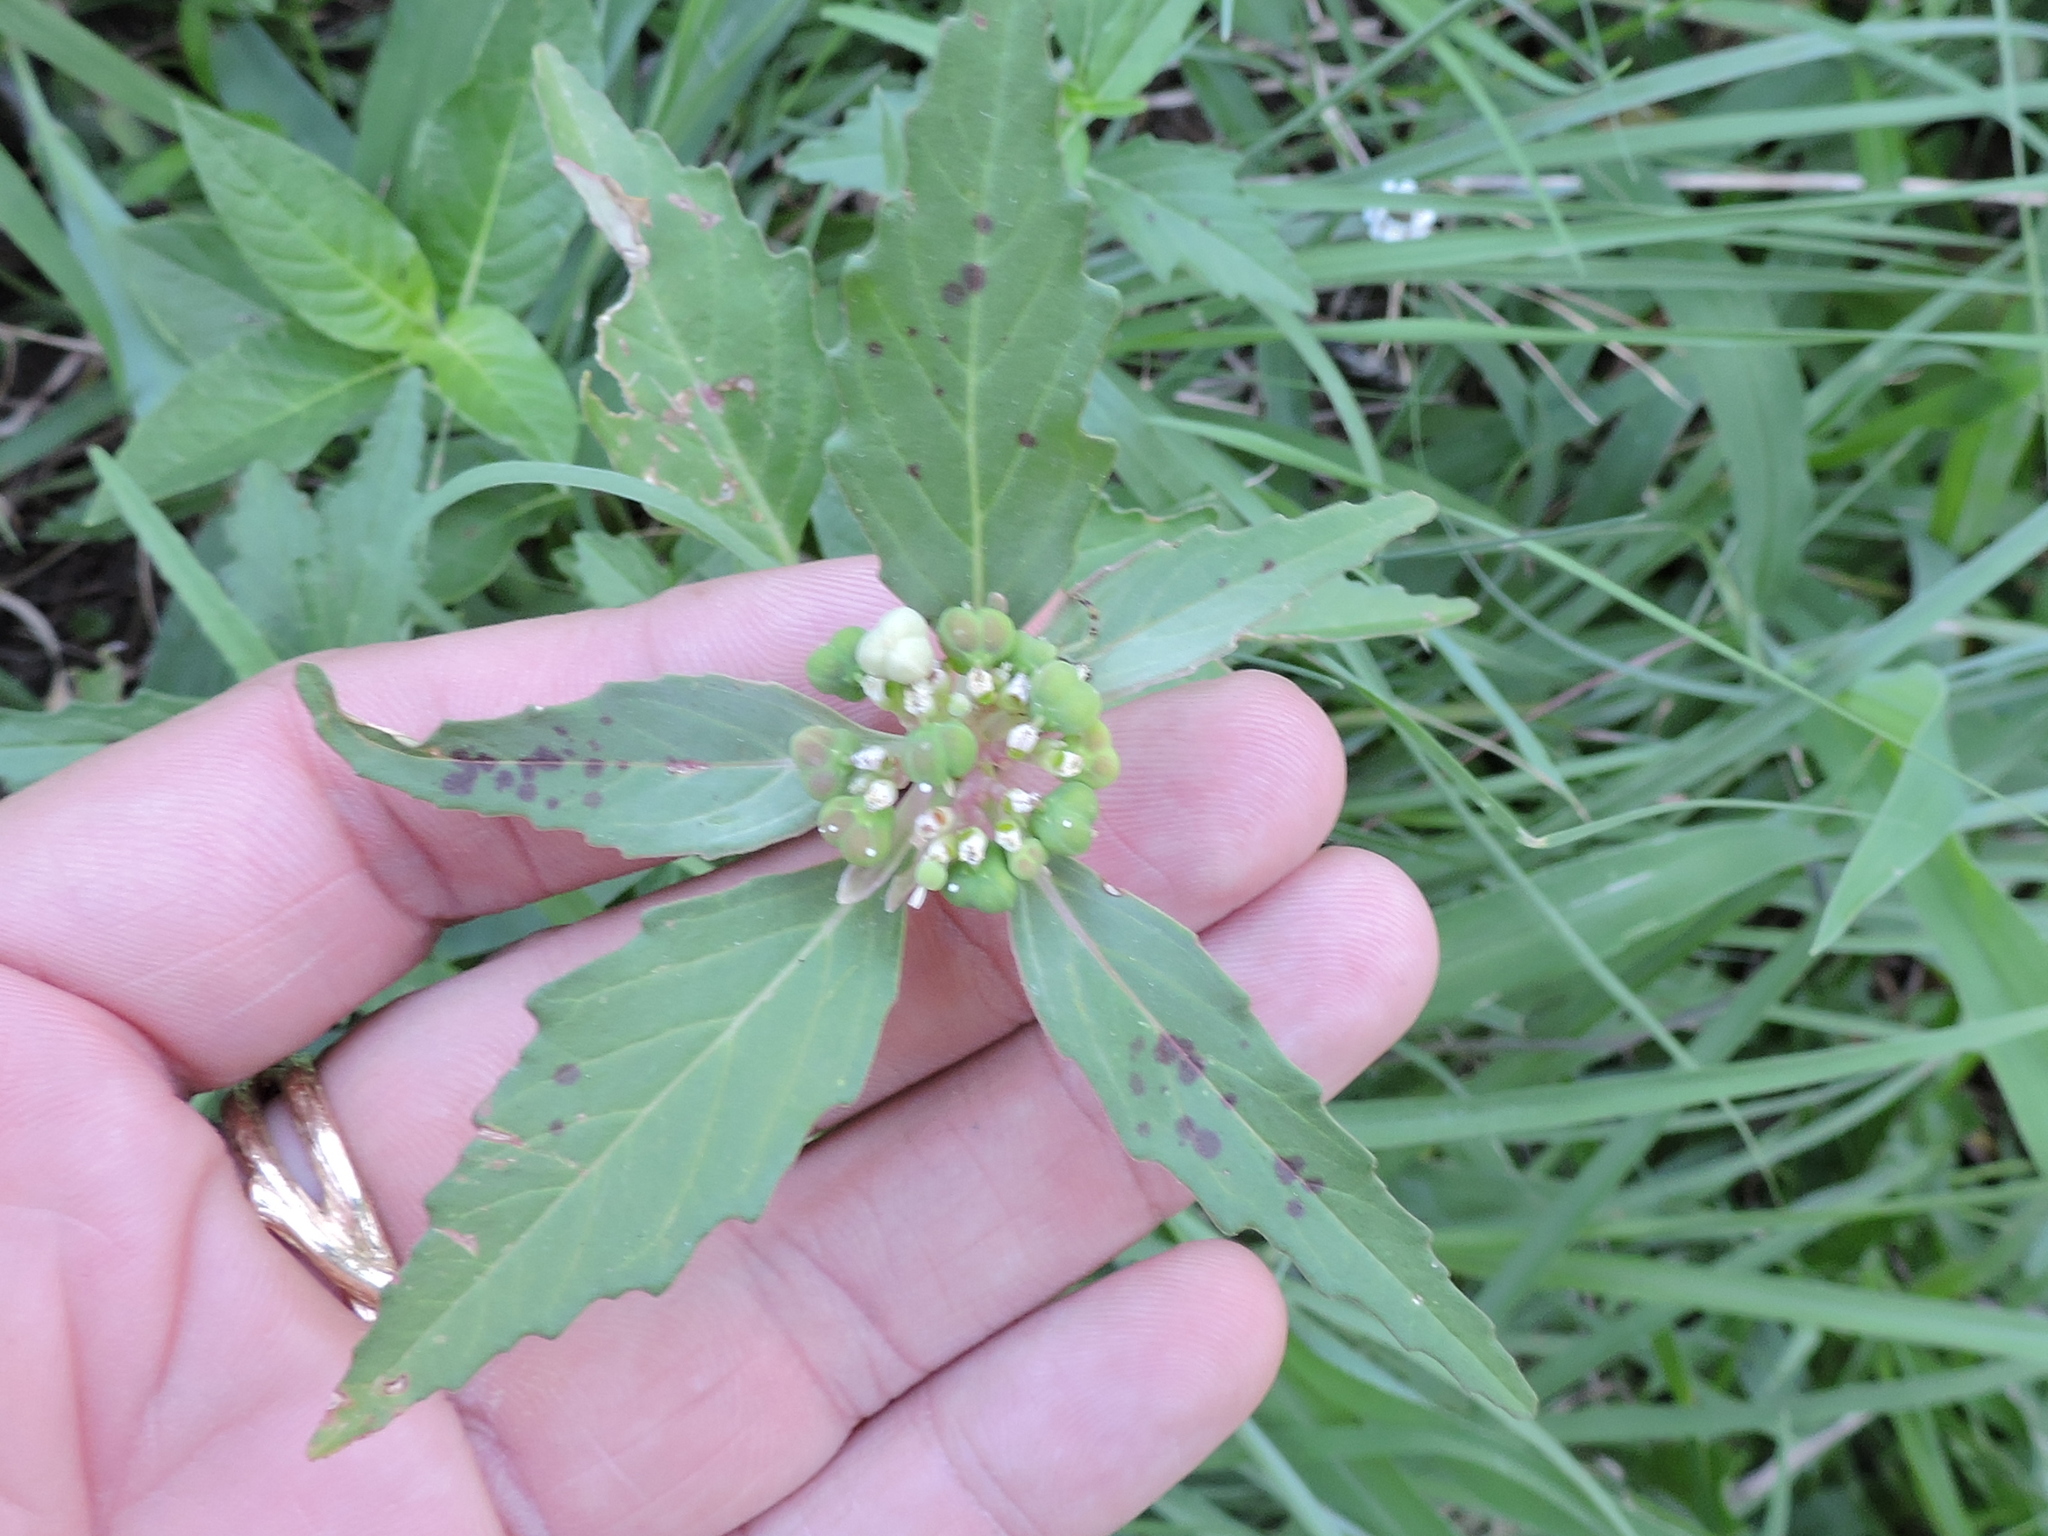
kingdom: Plantae
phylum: Tracheophyta
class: Magnoliopsida
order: Malpighiales
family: Euphorbiaceae
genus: Euphorbia
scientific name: Euphorbia dentata
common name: Dentate spurge
